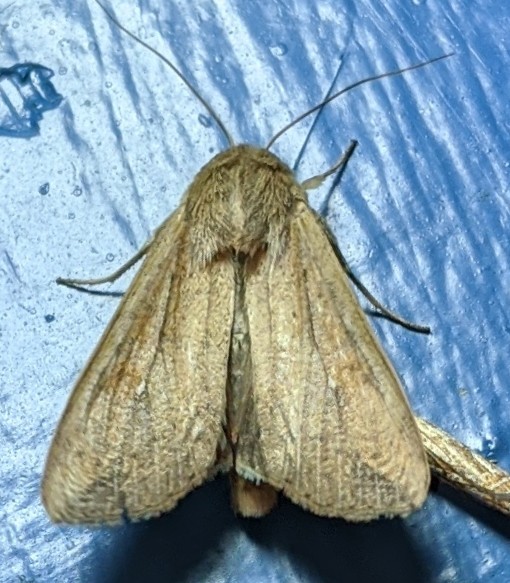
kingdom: Animalia
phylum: Arthropoda
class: Insecta
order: Lepidoptera
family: Noctuidae
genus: Mythimna
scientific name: Mythimna unipuncta
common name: White-speck
